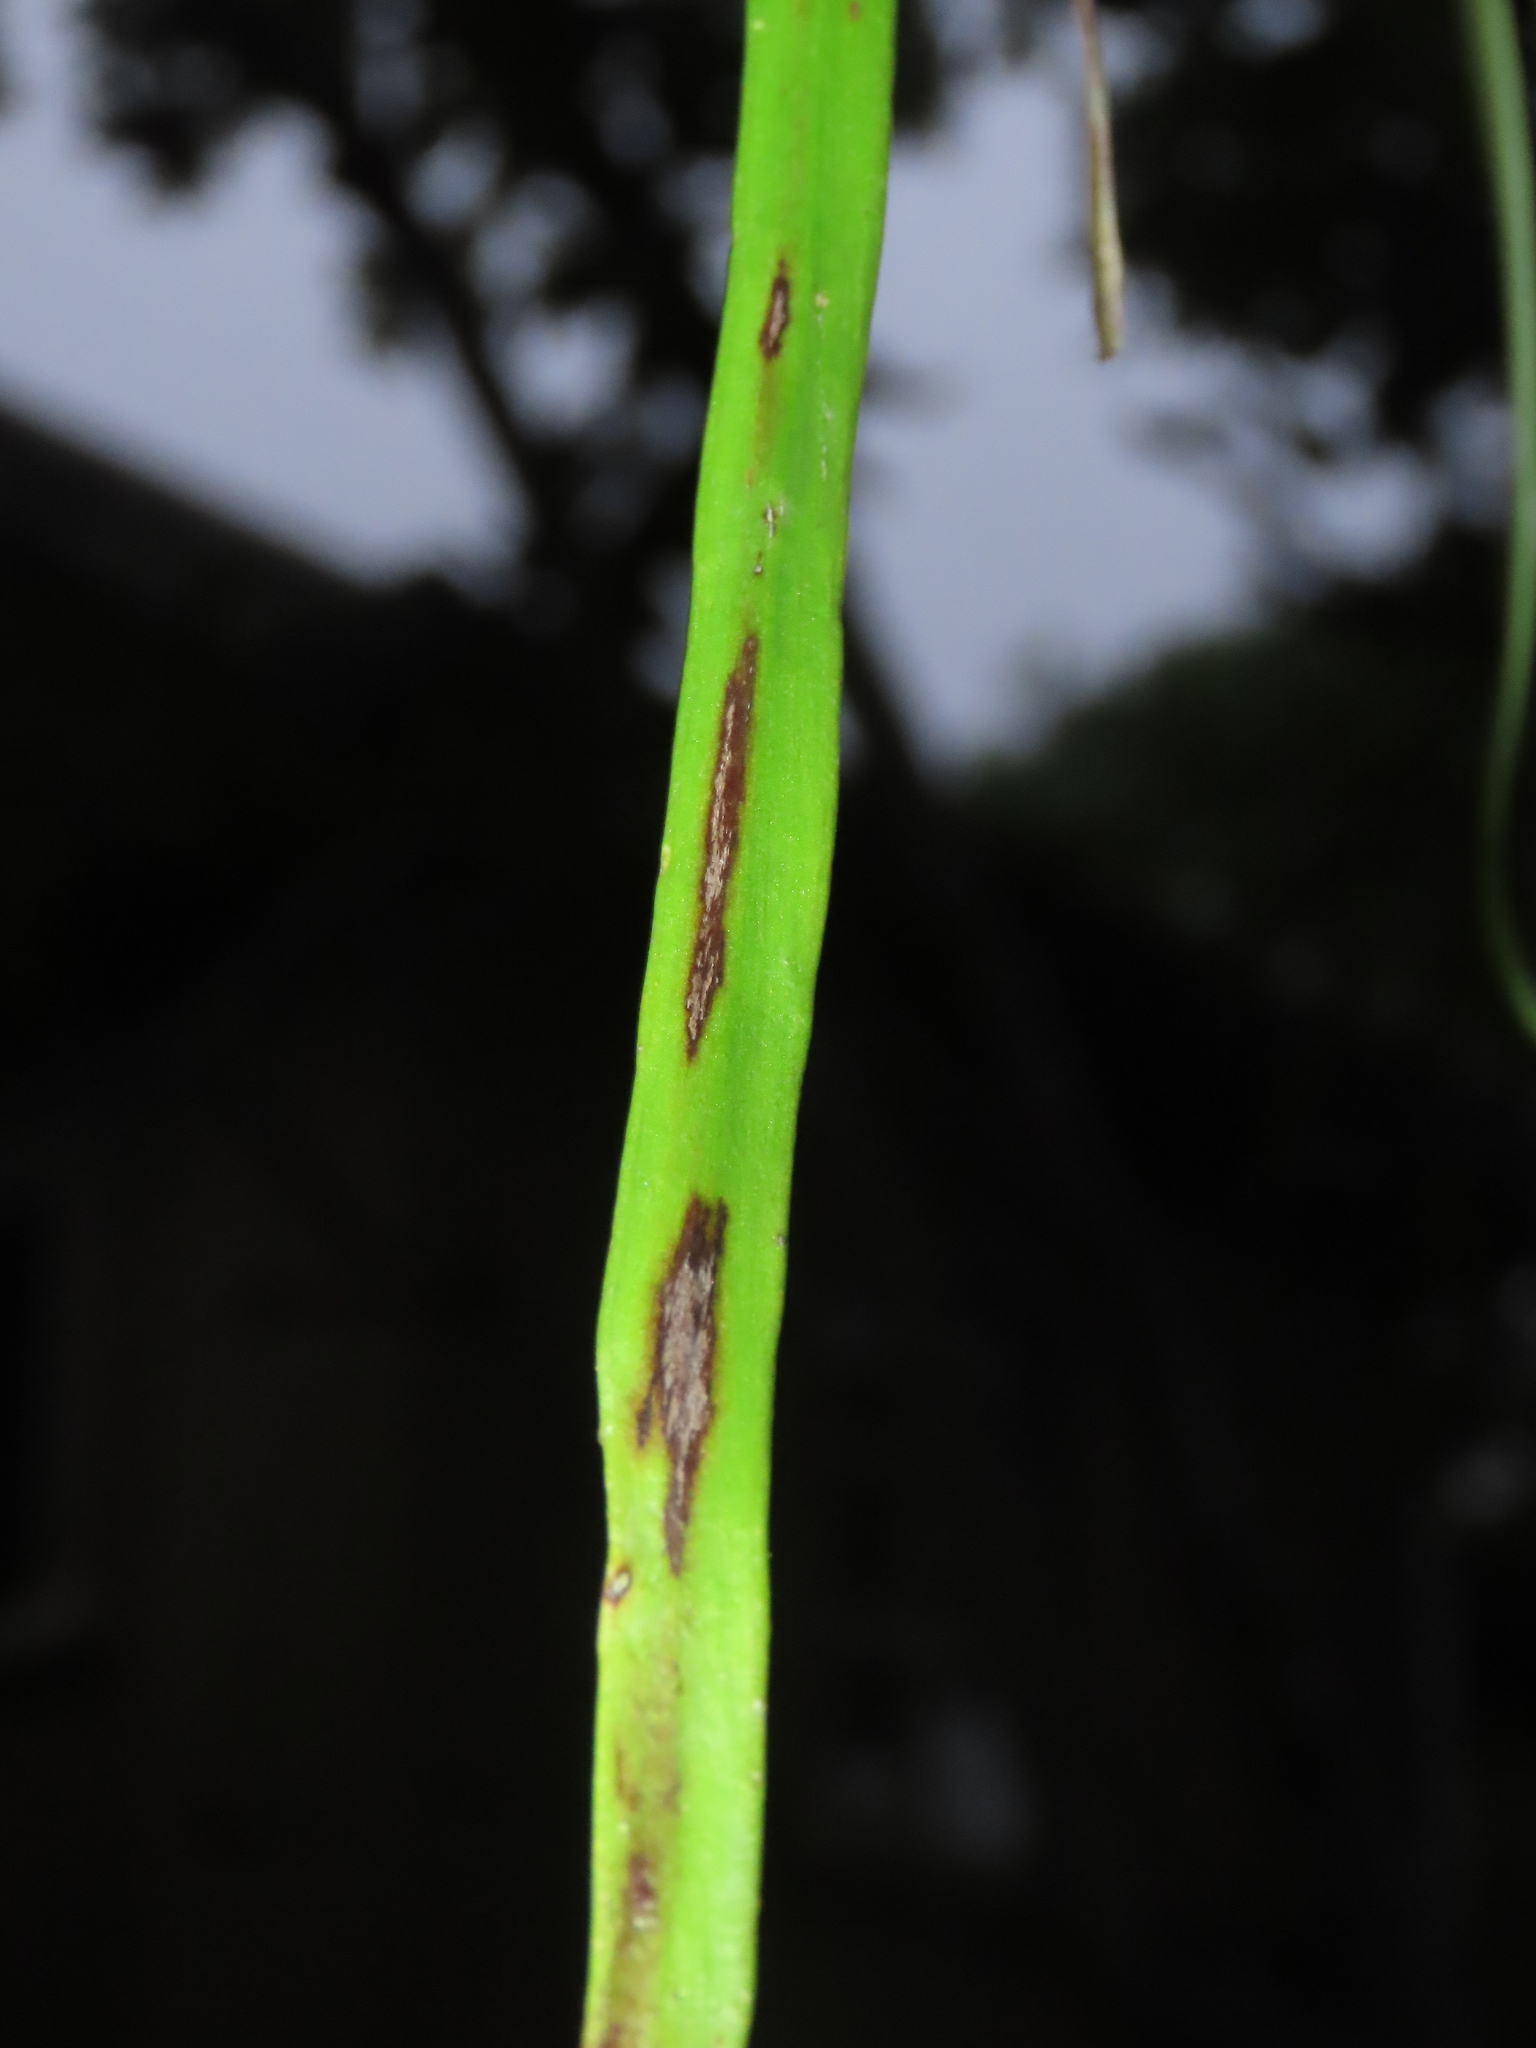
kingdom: Plantae
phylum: Tracheophyta
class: Polypodiopsida
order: Polypodiales
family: Pteridaceae
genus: Haplopteris
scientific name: Haplopteris elongata
